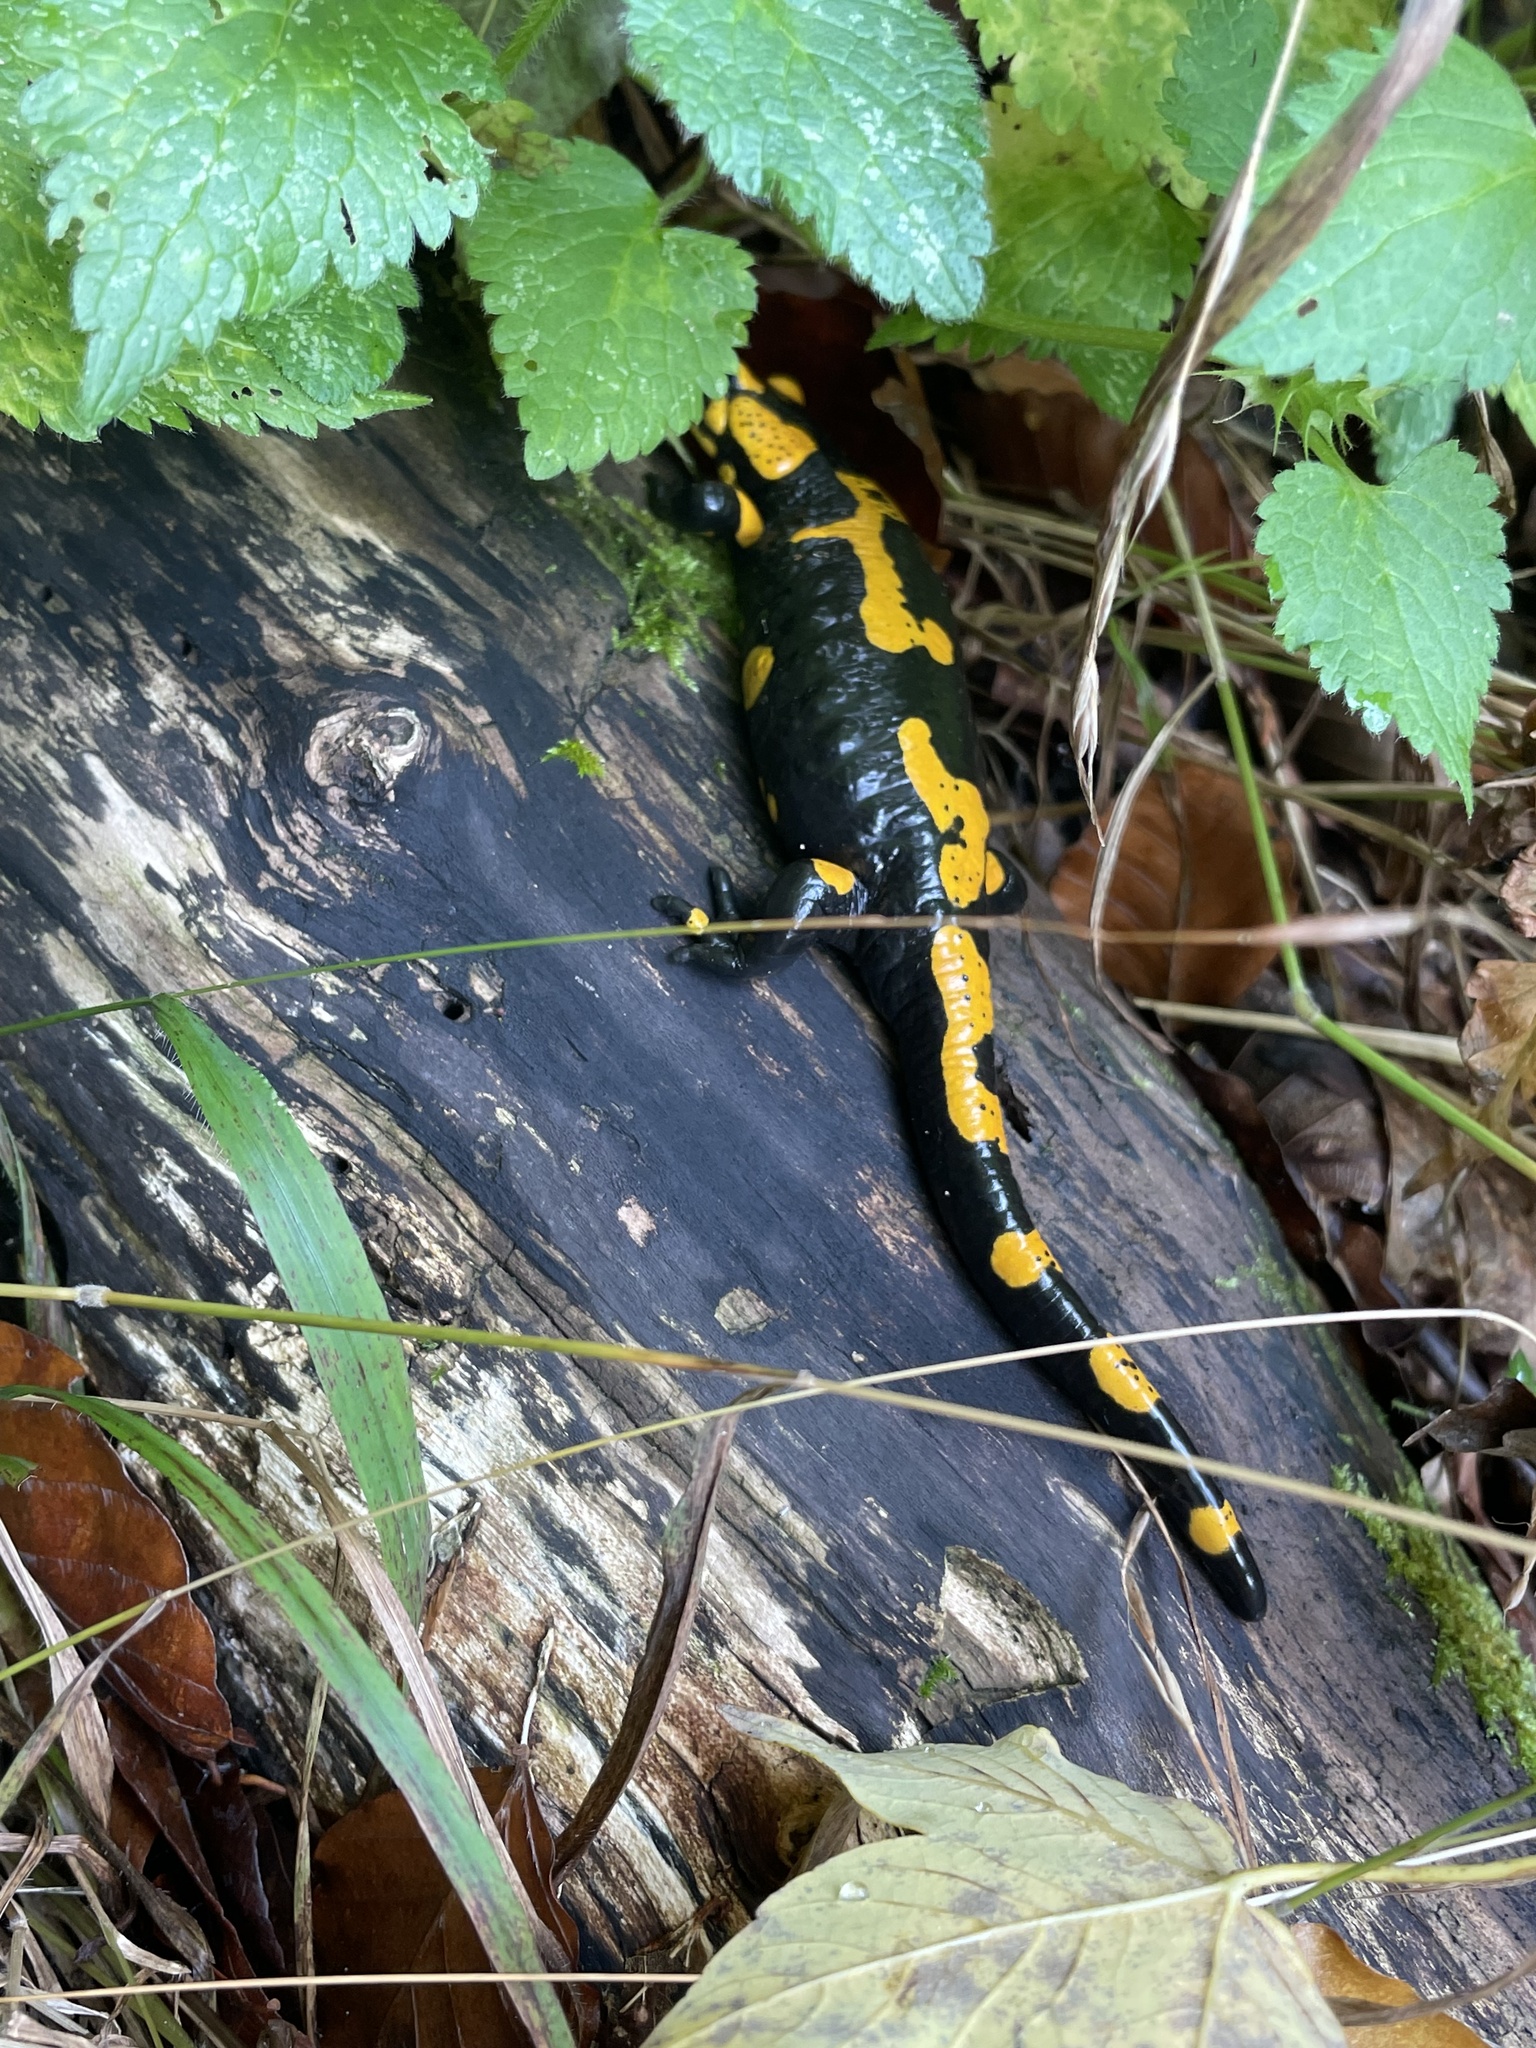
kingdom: Animalia
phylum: Chordata
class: Amphibia
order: Caudata
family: Salamandridae
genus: Salamandra
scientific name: Salamandra salamandra
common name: Fire salamander
